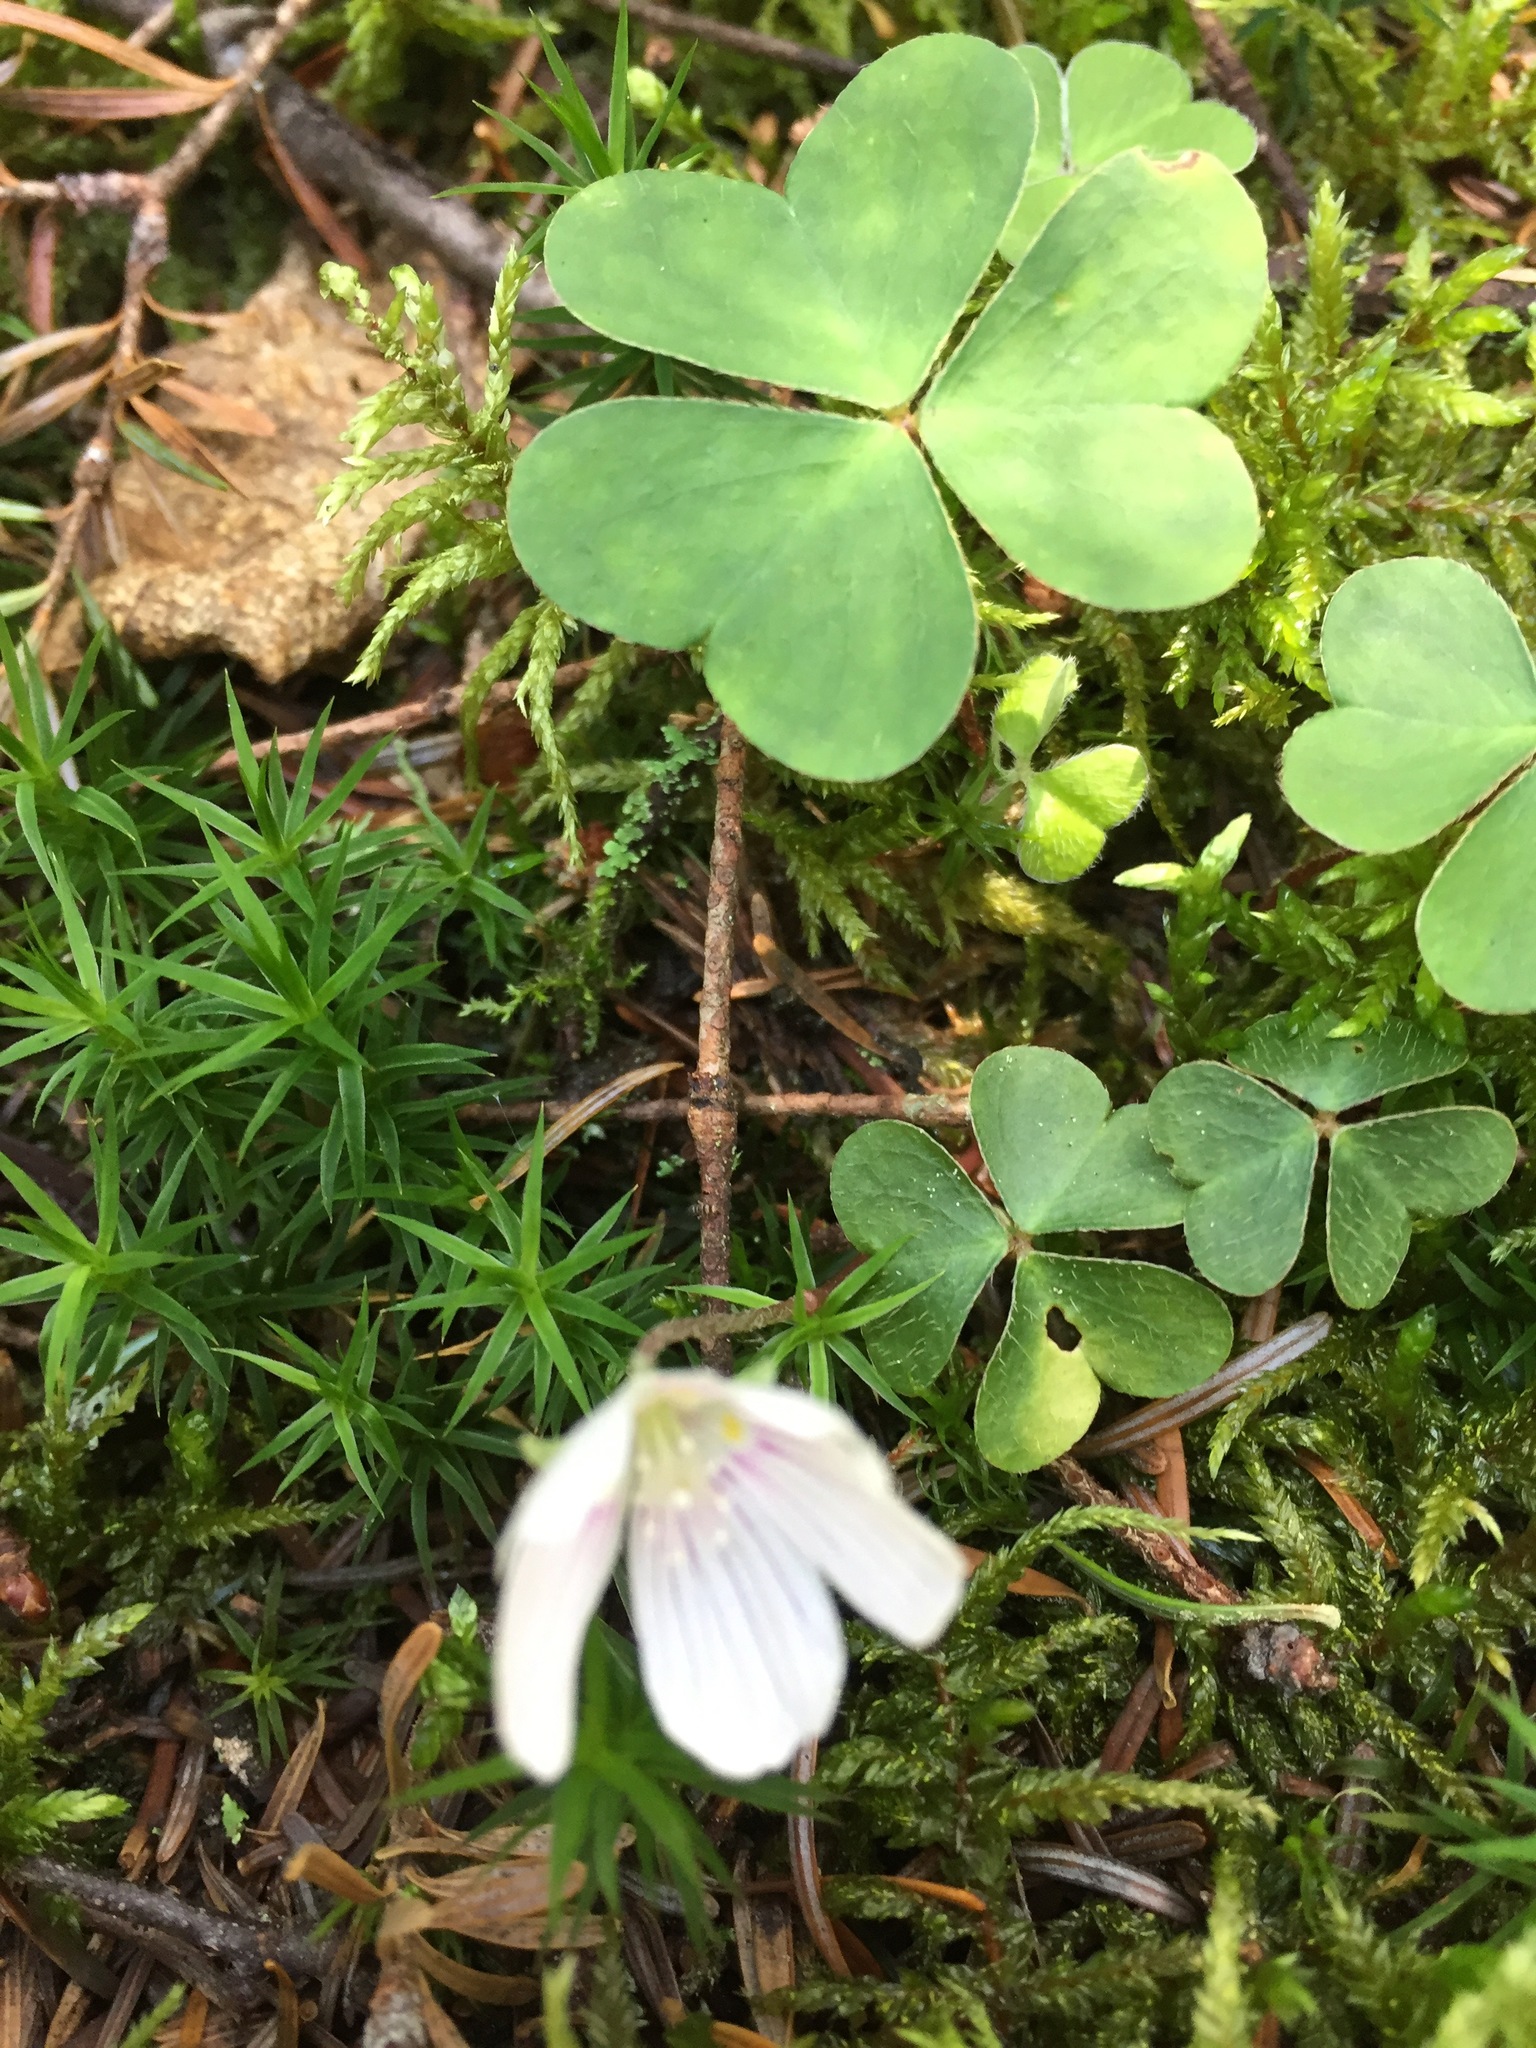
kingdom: Plantae
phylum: Tracheophyta
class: Magnoliopsida
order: Oxalidales
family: Oxalidaceae
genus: Oxalis
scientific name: Oxalis montana
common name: American wood-sorrel
